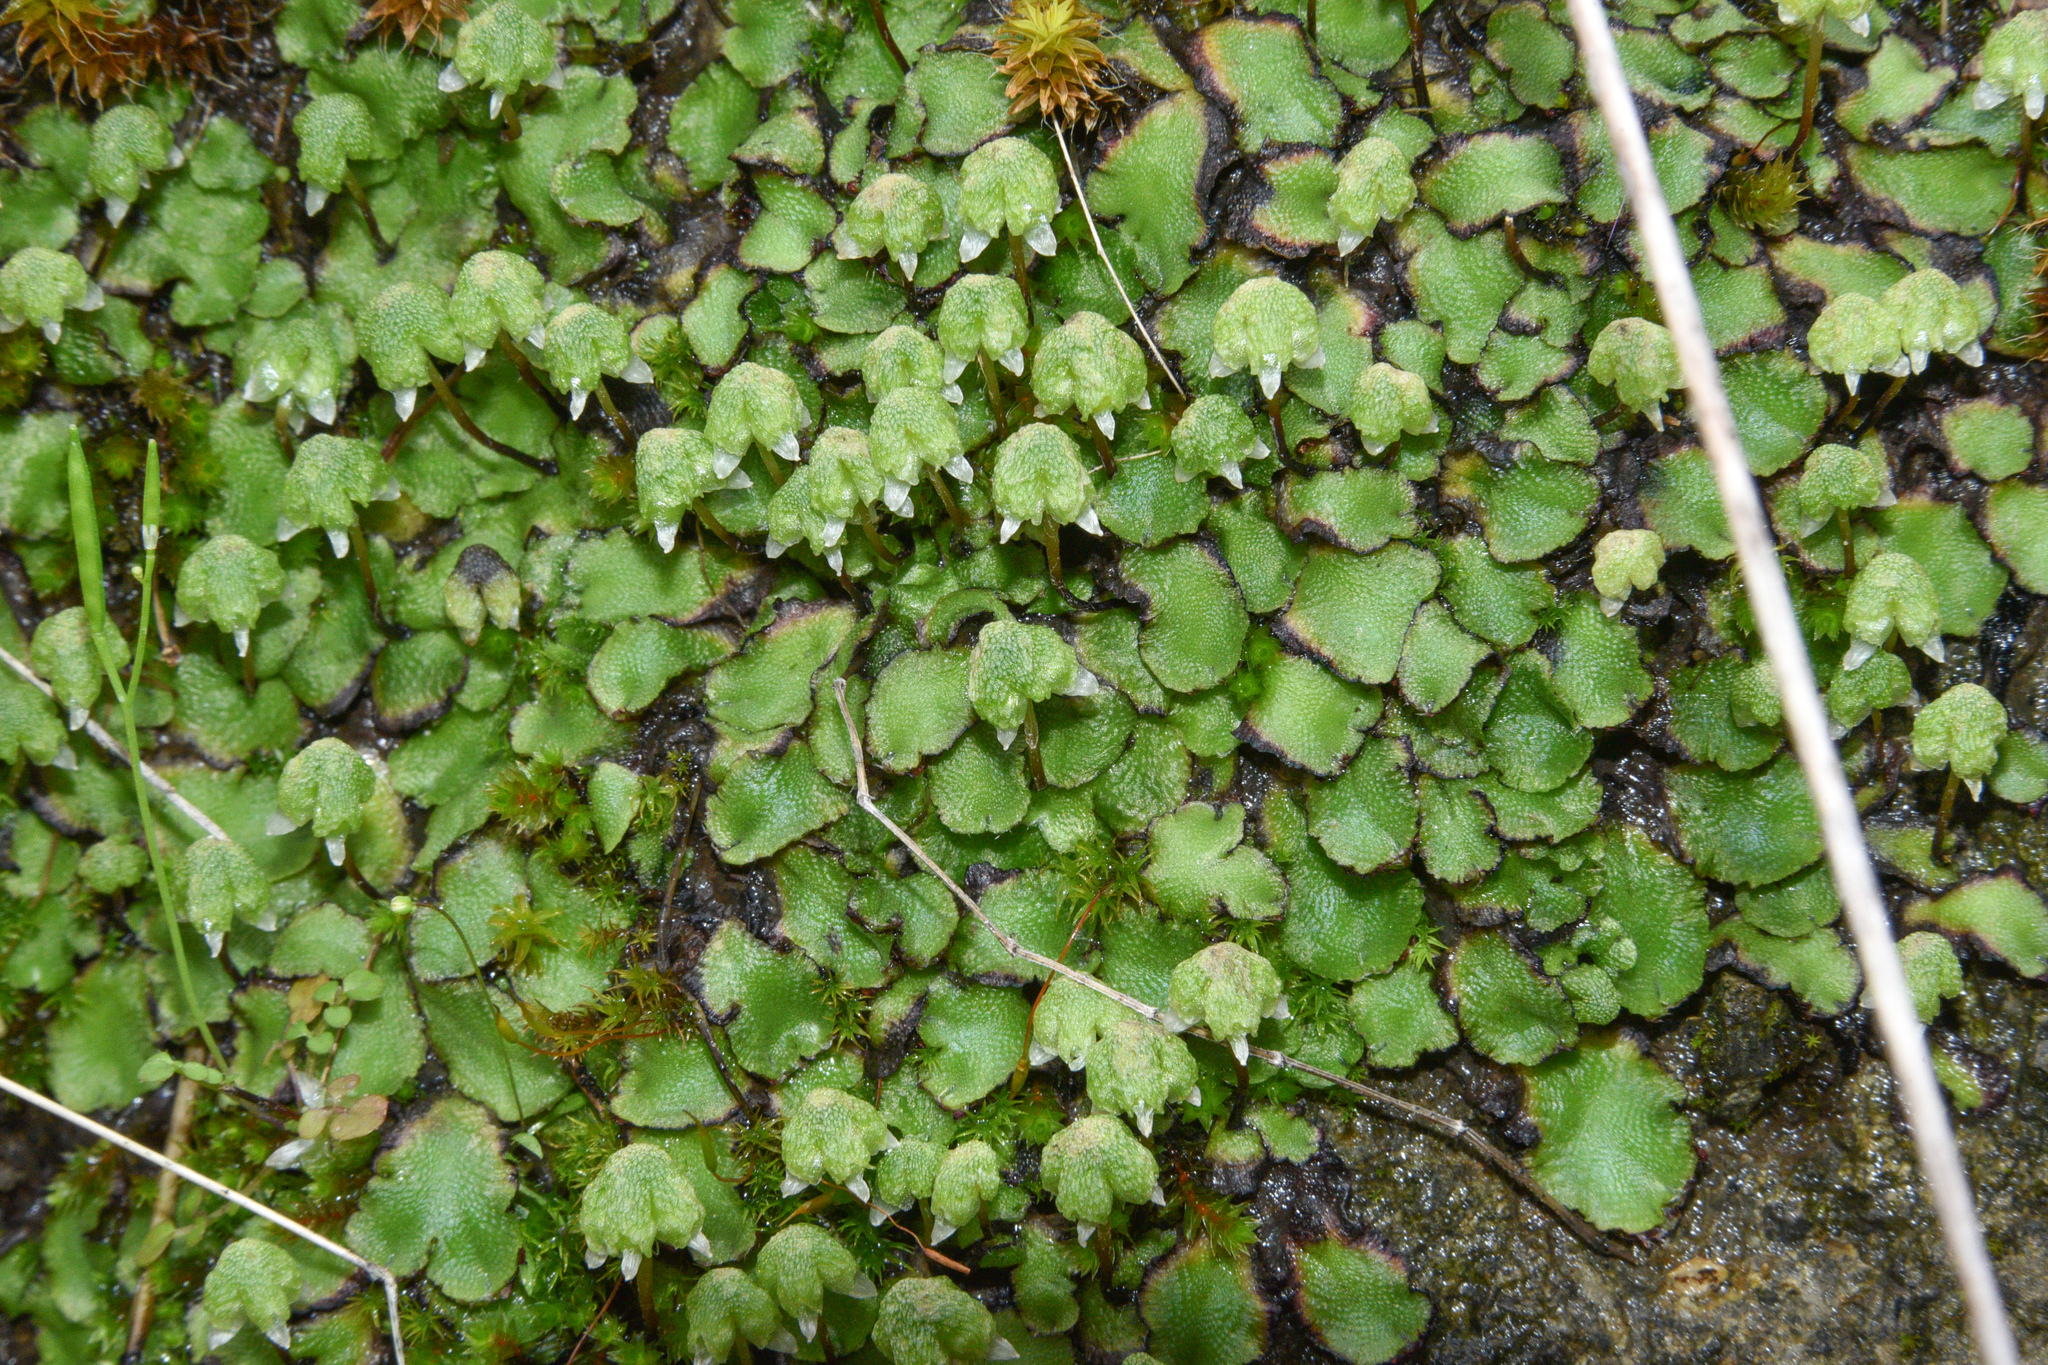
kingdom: Plantae
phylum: Marchantiophyta
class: Marchantiopsida
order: Marchantiales
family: Aytoniaceae
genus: Asterella
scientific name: Asterella californica
